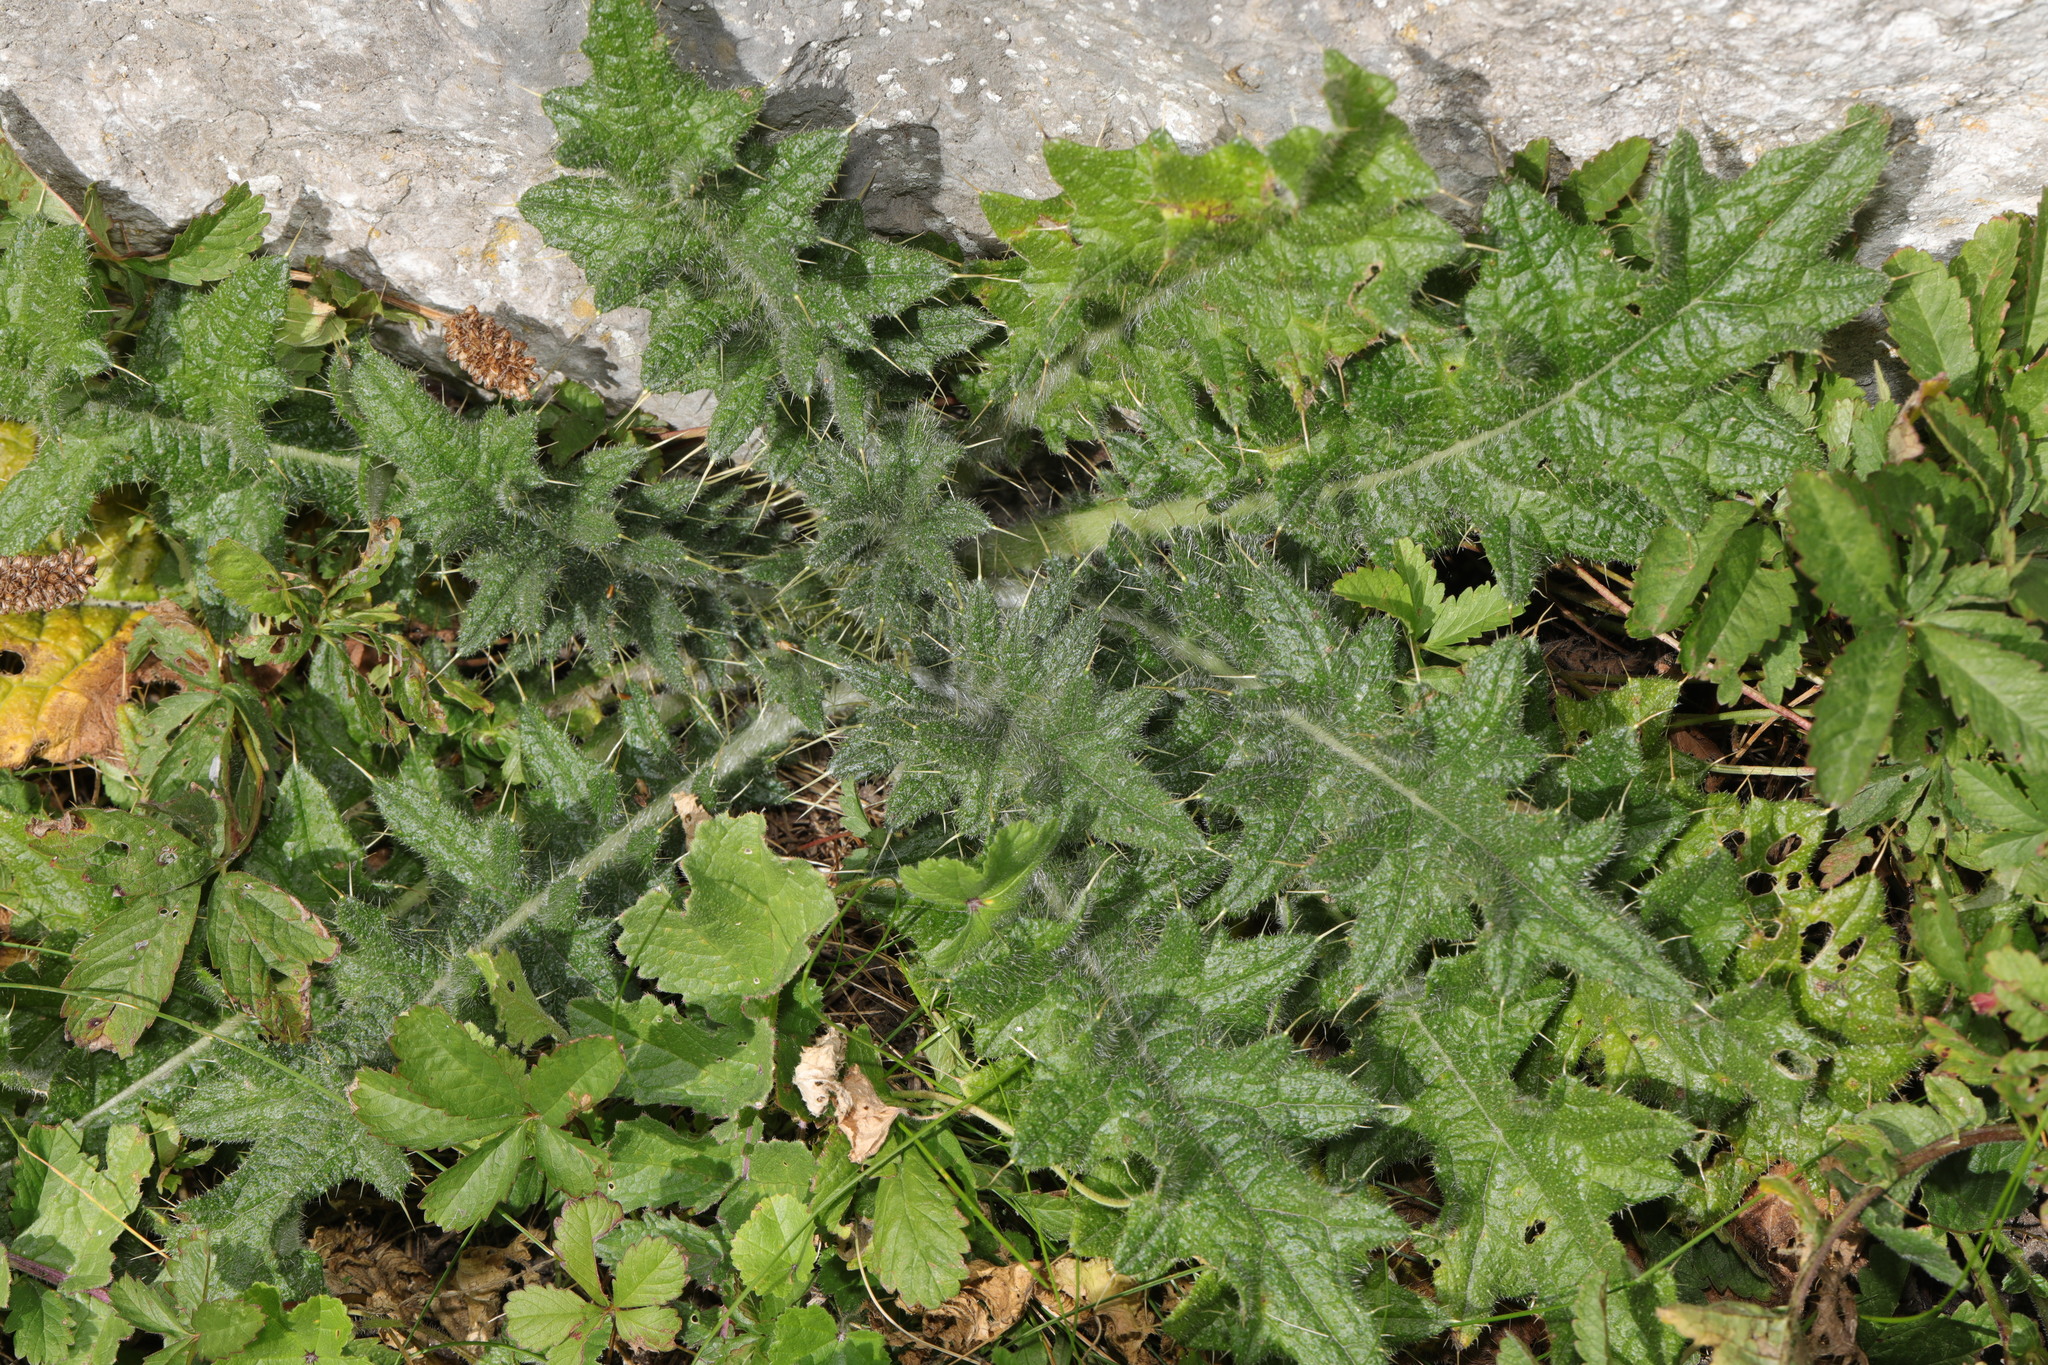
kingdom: Plantae
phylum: Tracheophyta
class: Magnoliopsida
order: Asterales
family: Asteraceae
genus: Cirsium
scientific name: Cirsium vulgare
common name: Bull thistle
